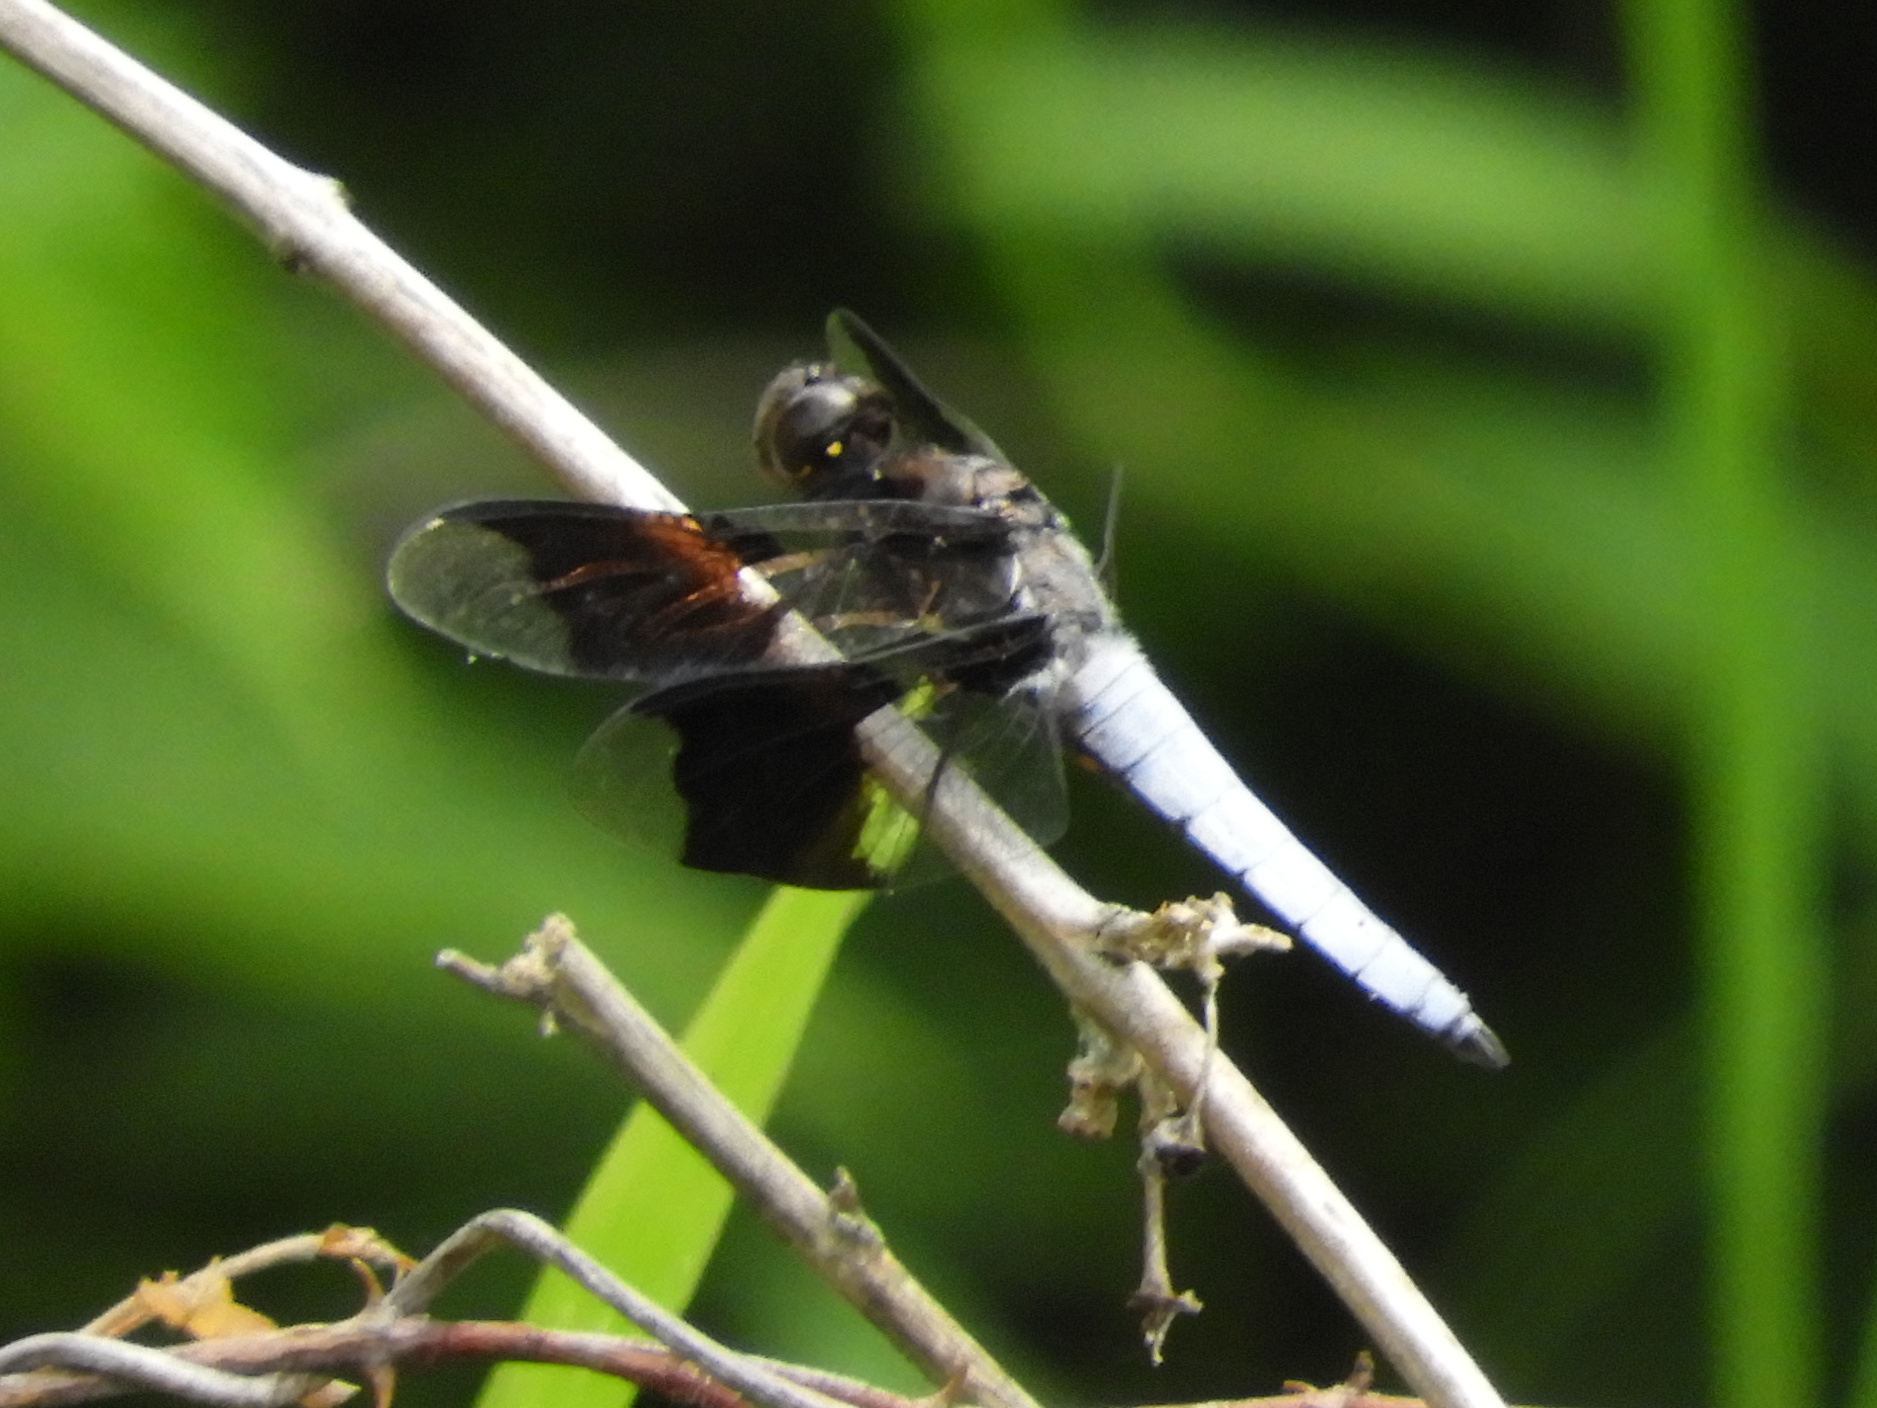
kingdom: Animalia
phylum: Arthropoda
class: Insecta
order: Odonata
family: Libellulidae
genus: Plathemis
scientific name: Plathemis lydia
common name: Common whitetail
